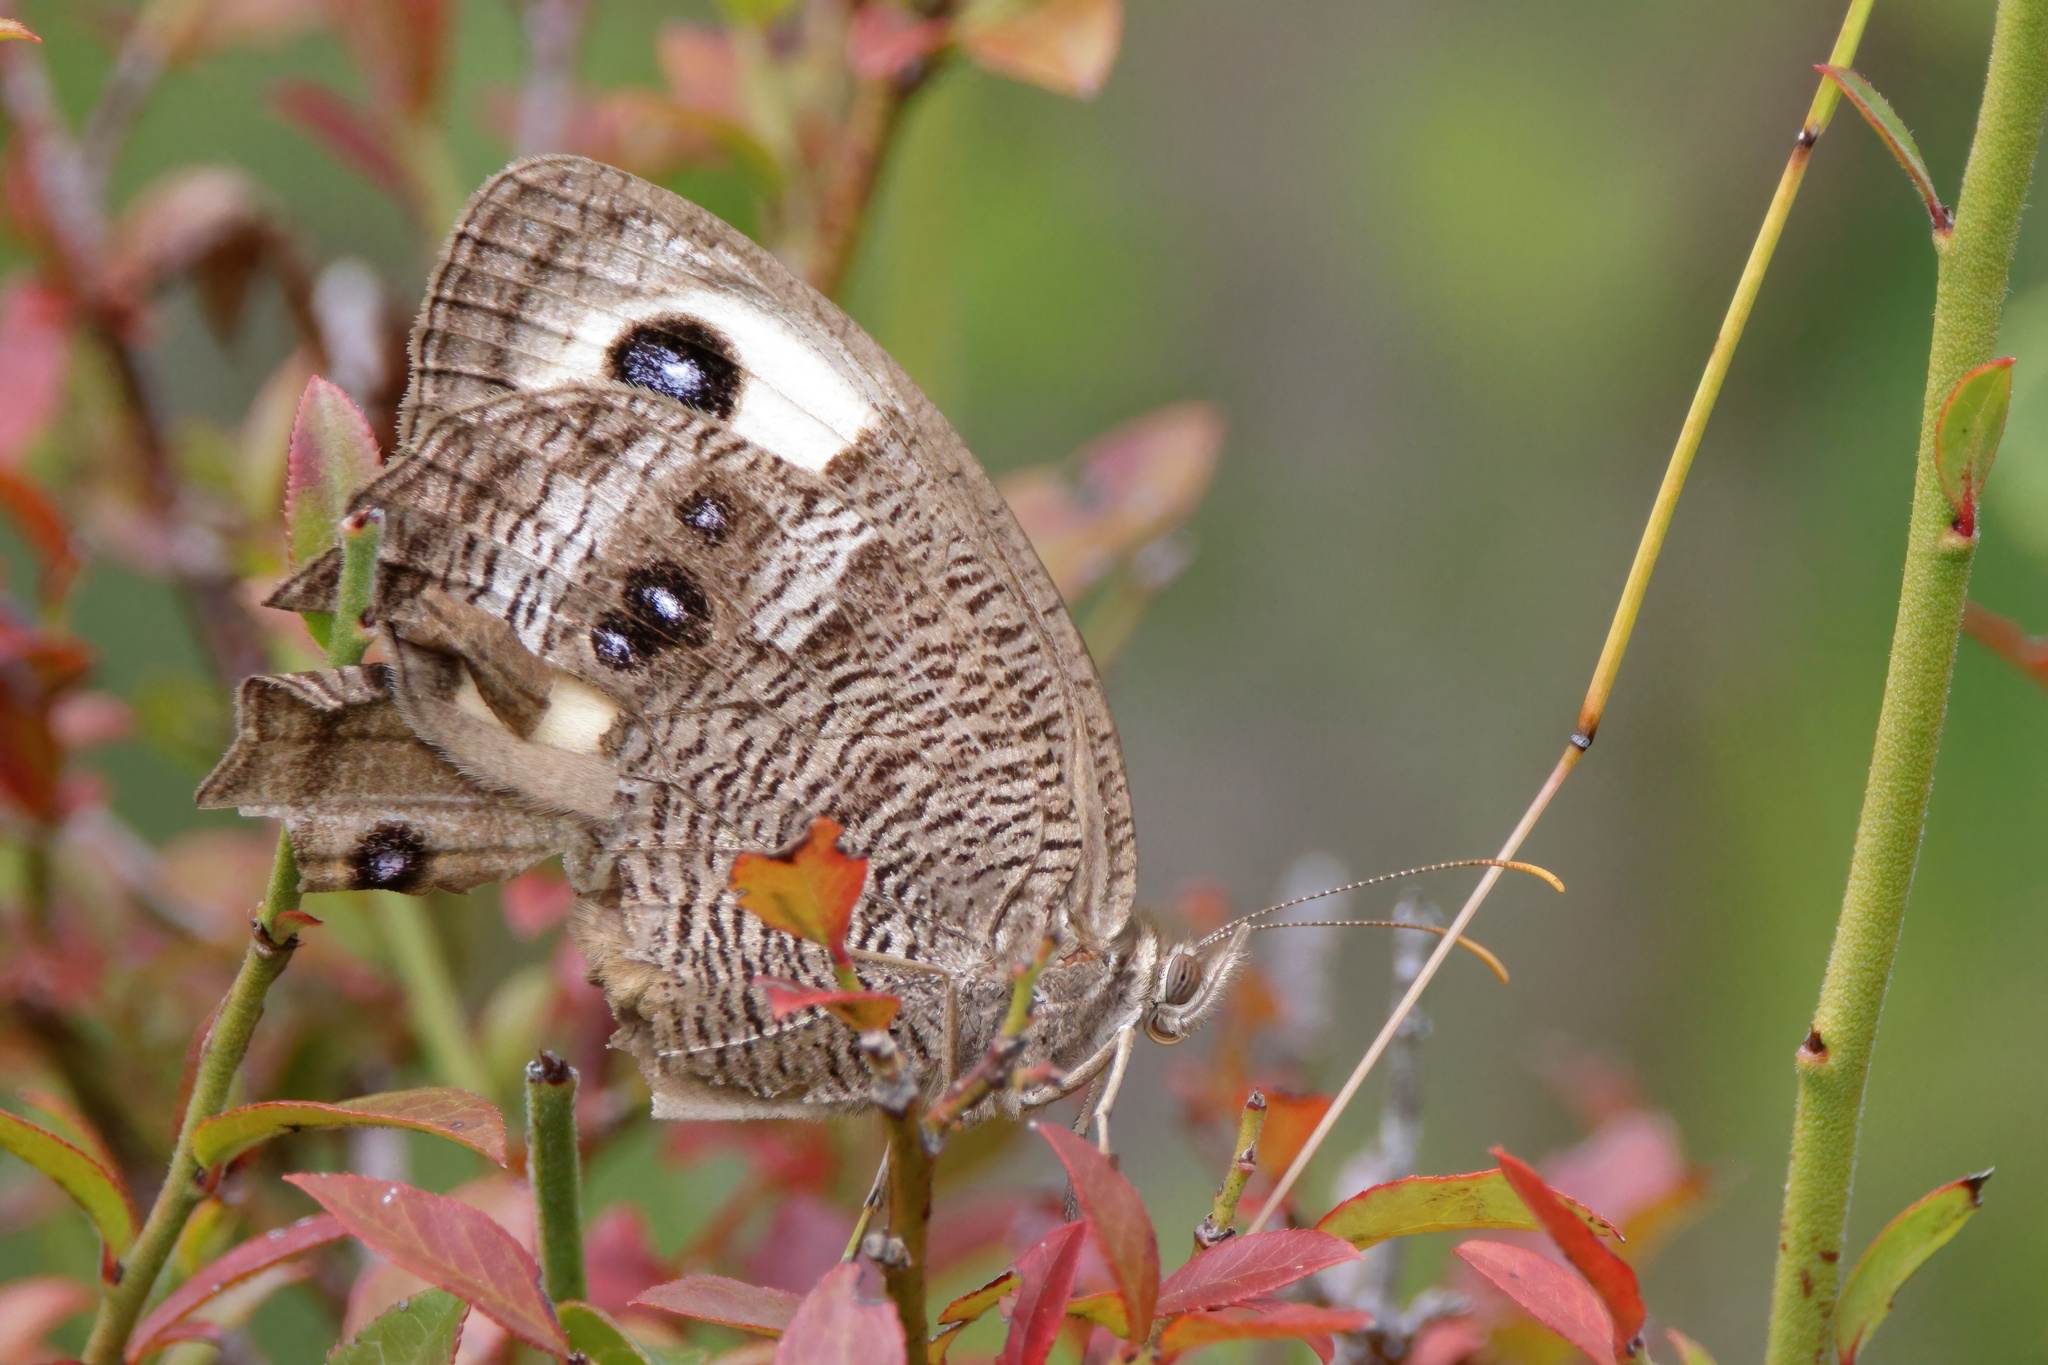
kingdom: Animalia
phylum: Arthropoda
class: Insecta
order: Lepidoptera
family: Nymphalidae
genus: Cercyonis
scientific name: Cercyonis pegala
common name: Common wood-nymph
